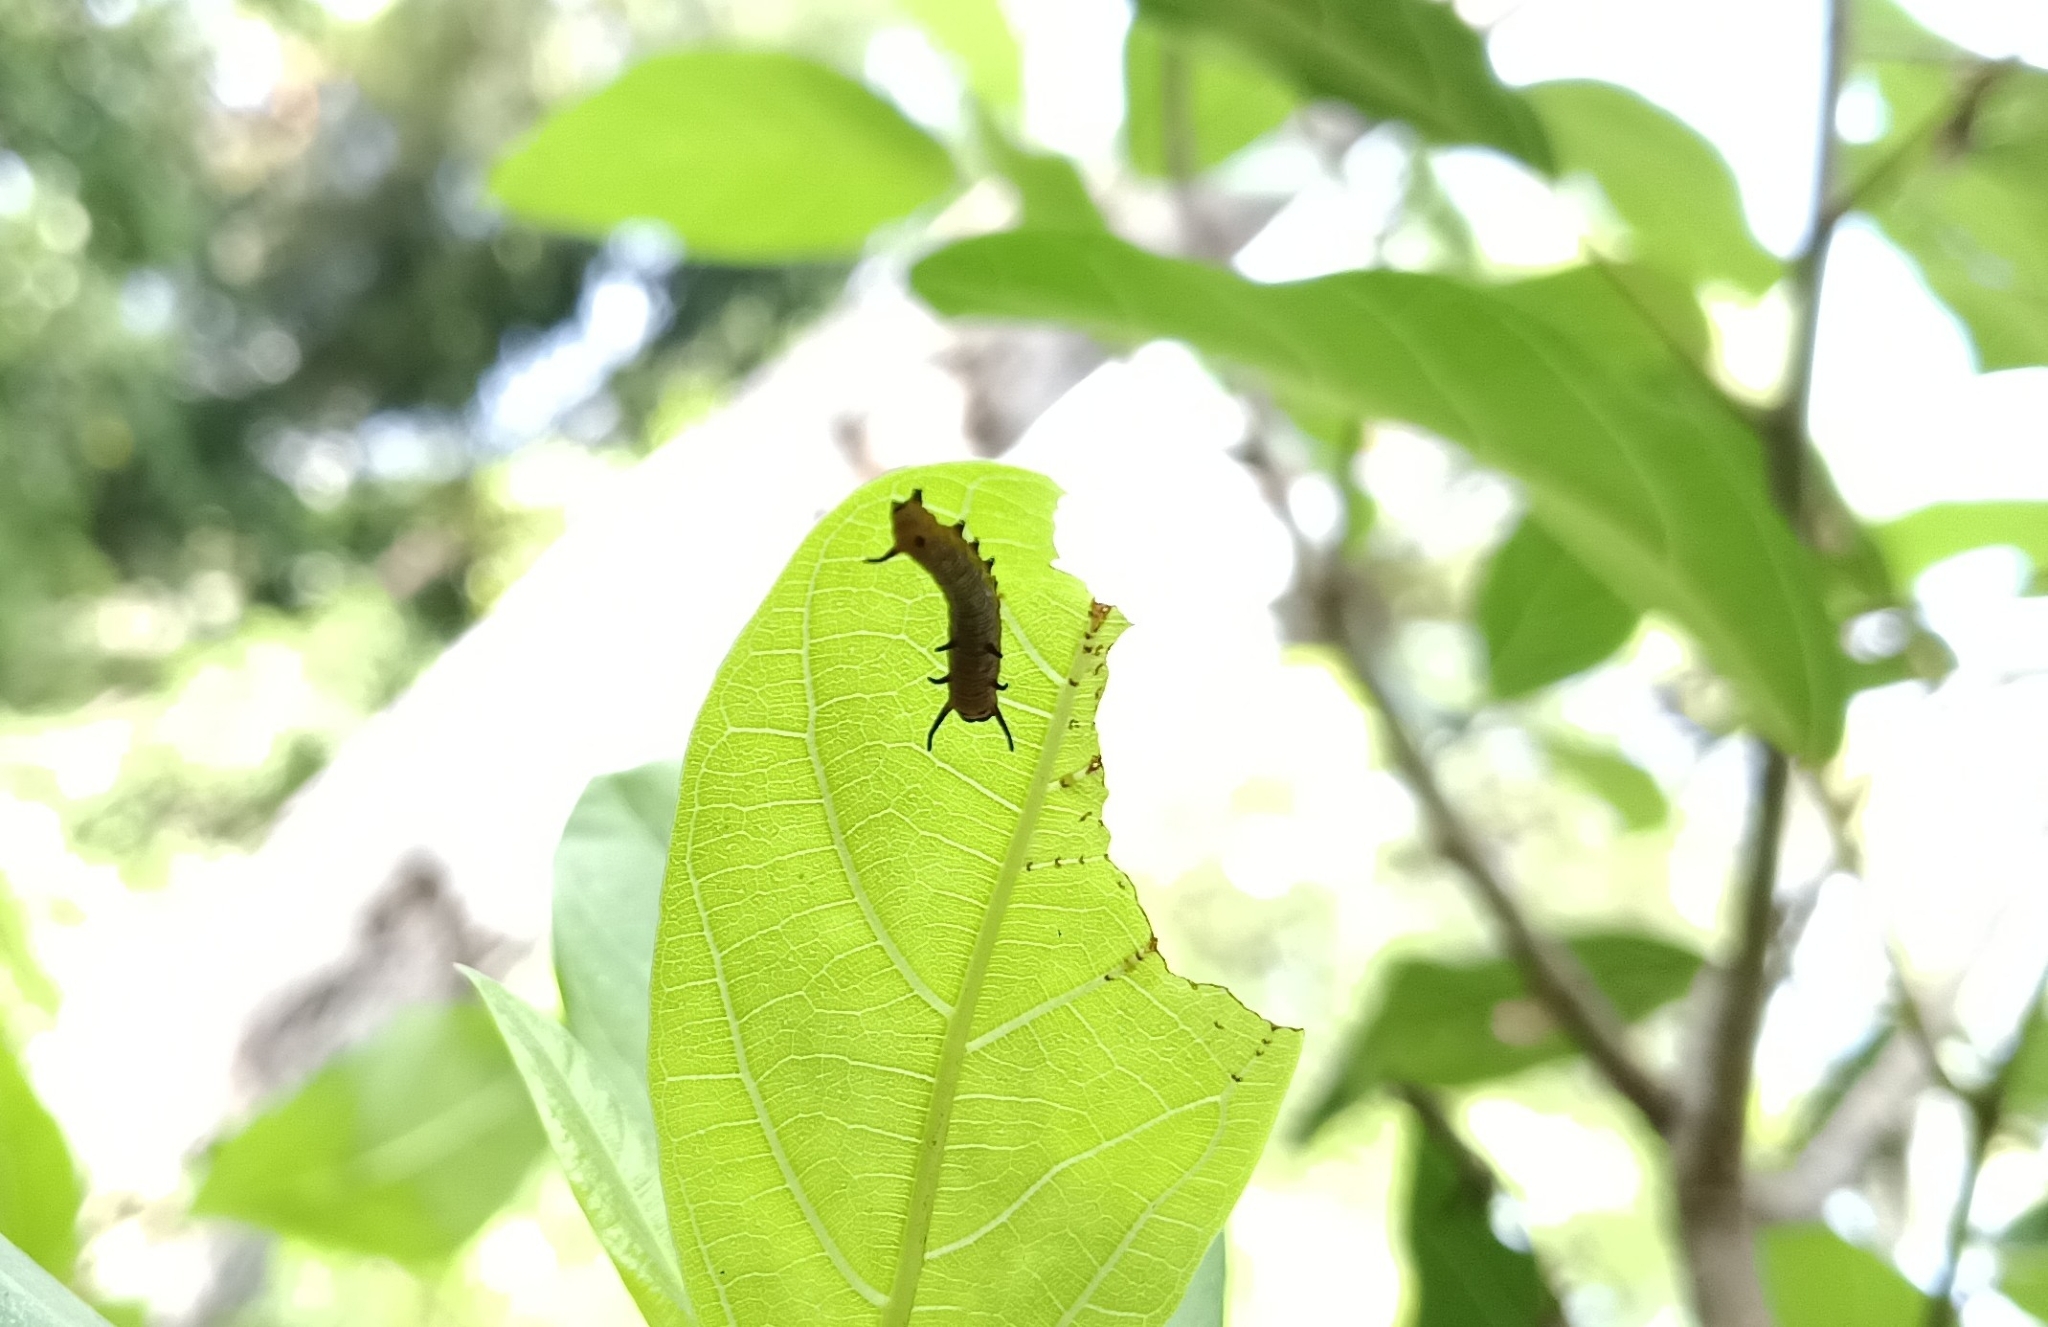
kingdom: Animalia
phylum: Arthropoda
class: Insecta
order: Lepidoptera
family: Nymphalidae
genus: Euploea
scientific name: Euploea core
